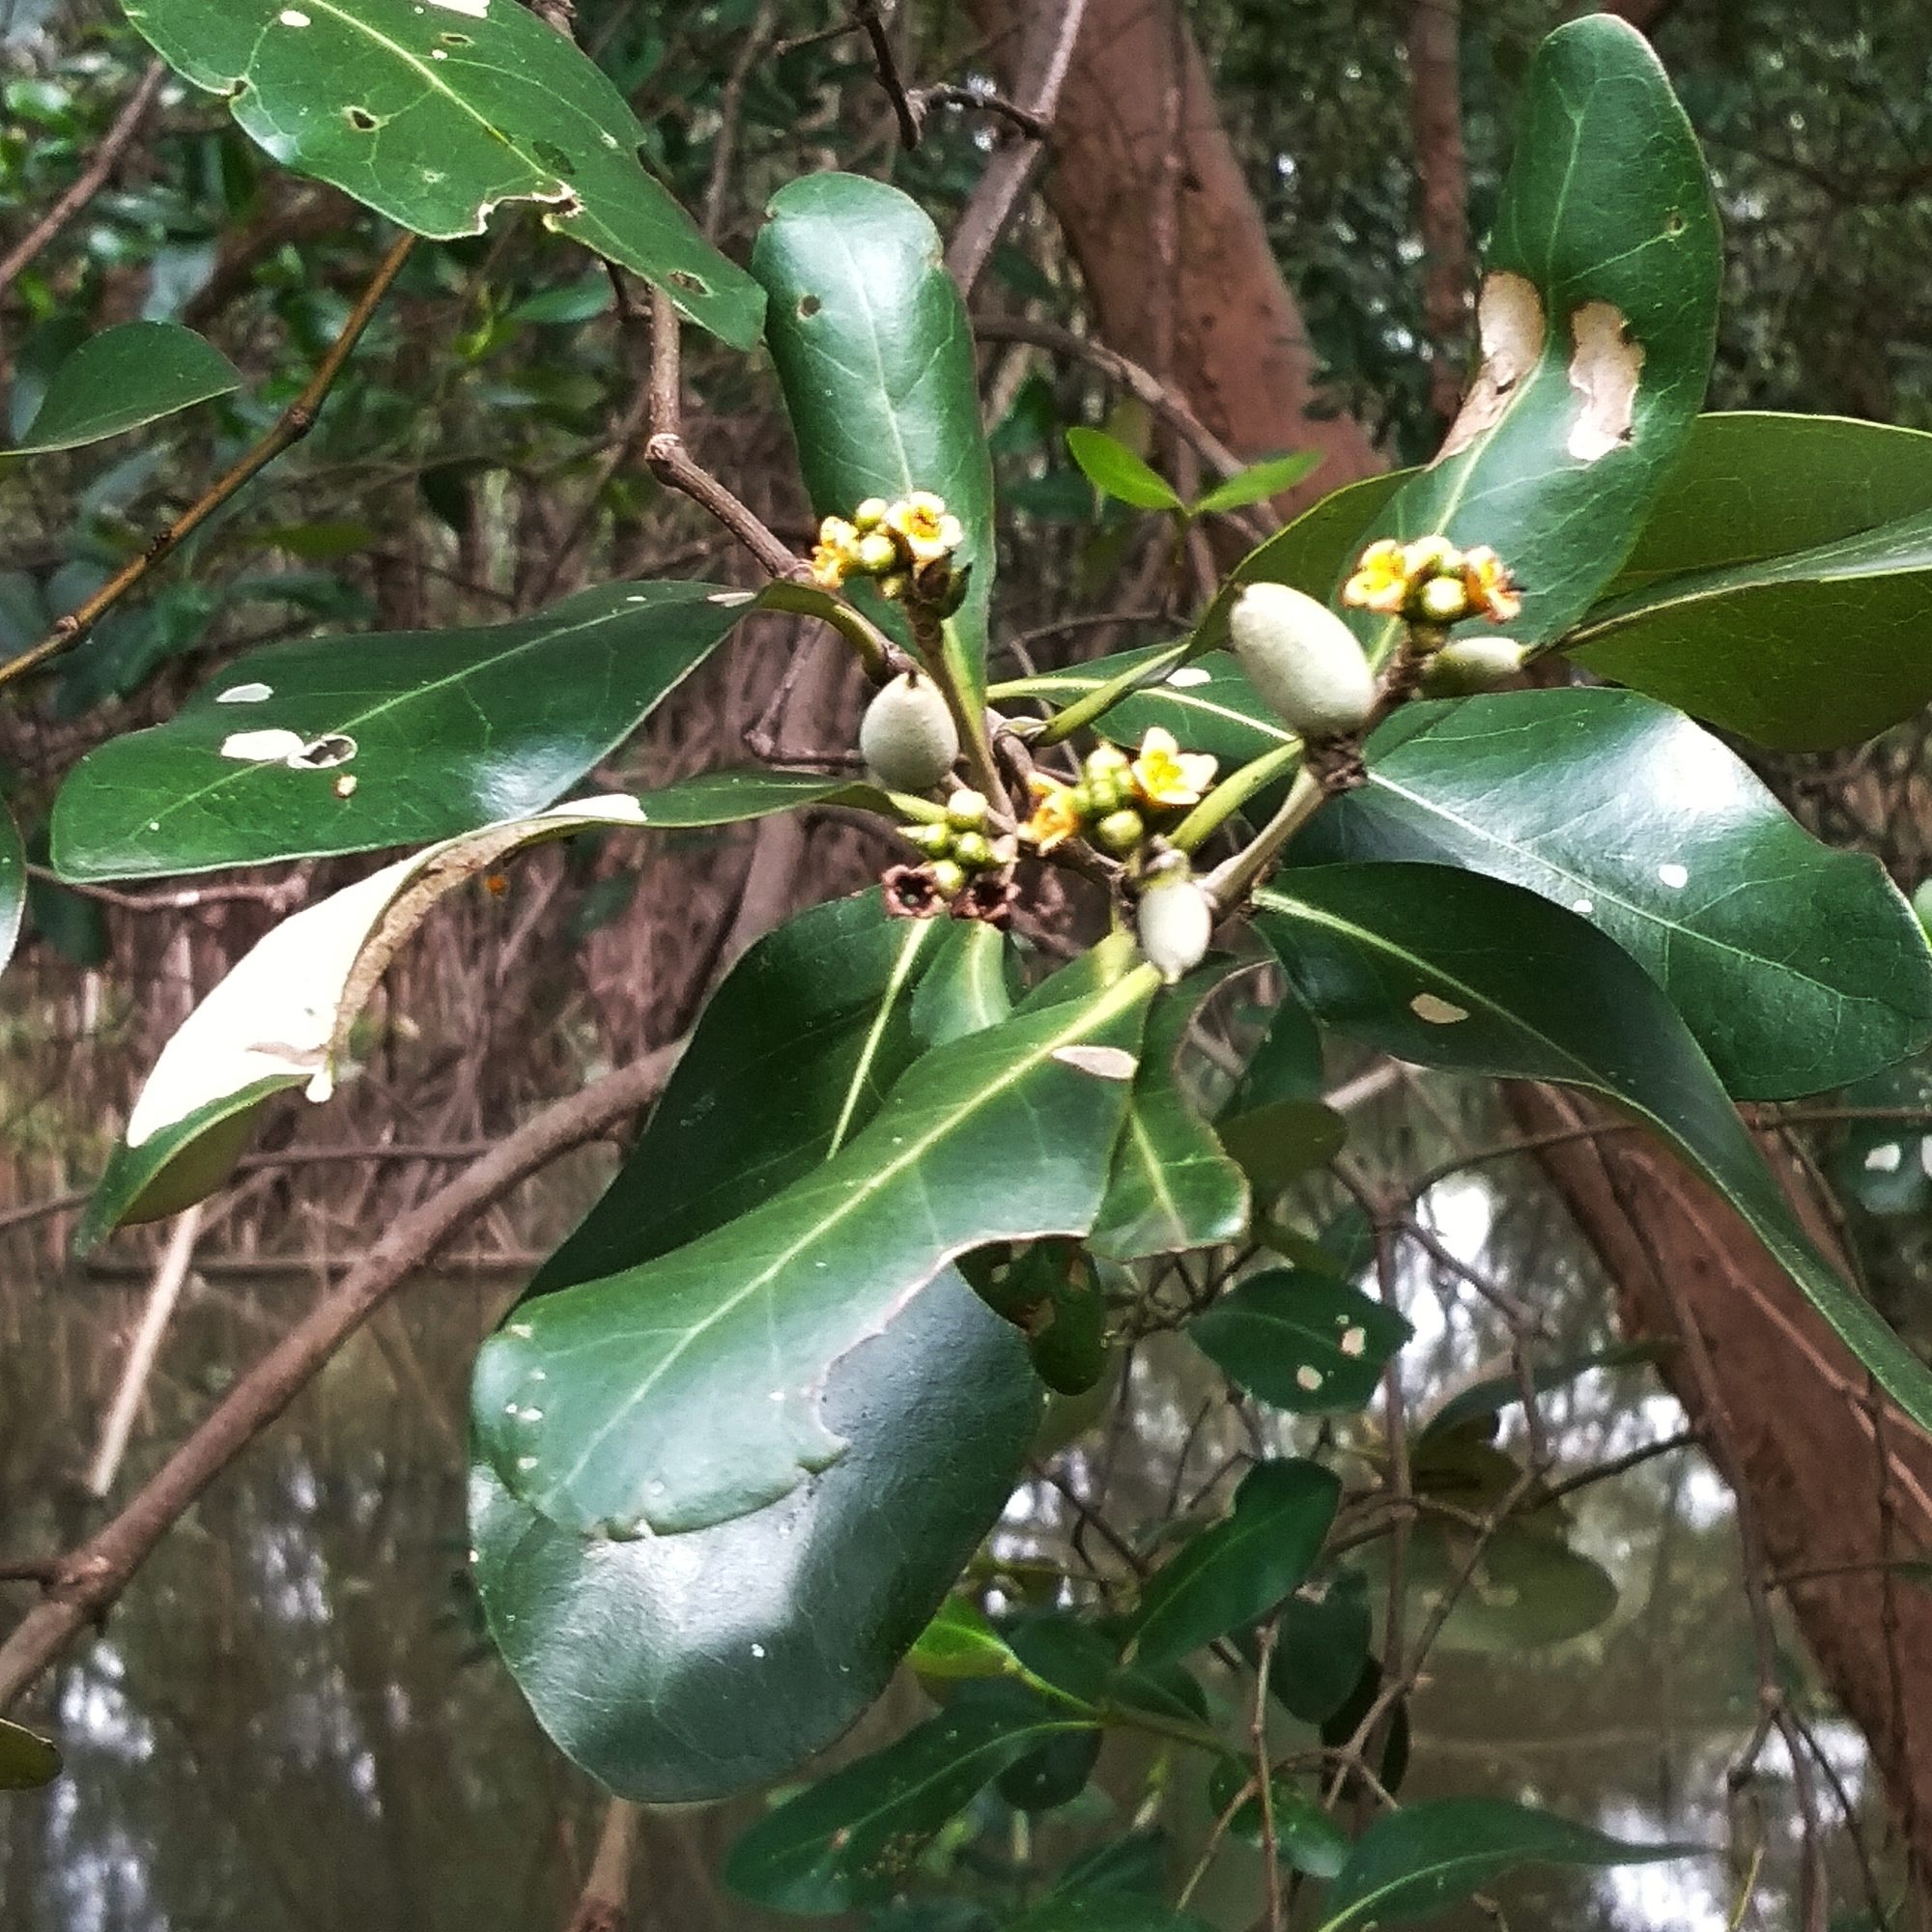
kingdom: Plantae
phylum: Tracheophyta
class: Magnoliopsida
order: Lamiales
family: Acanthaceae
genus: Avicennia
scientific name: Avicennia marina
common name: Gray mangrove
